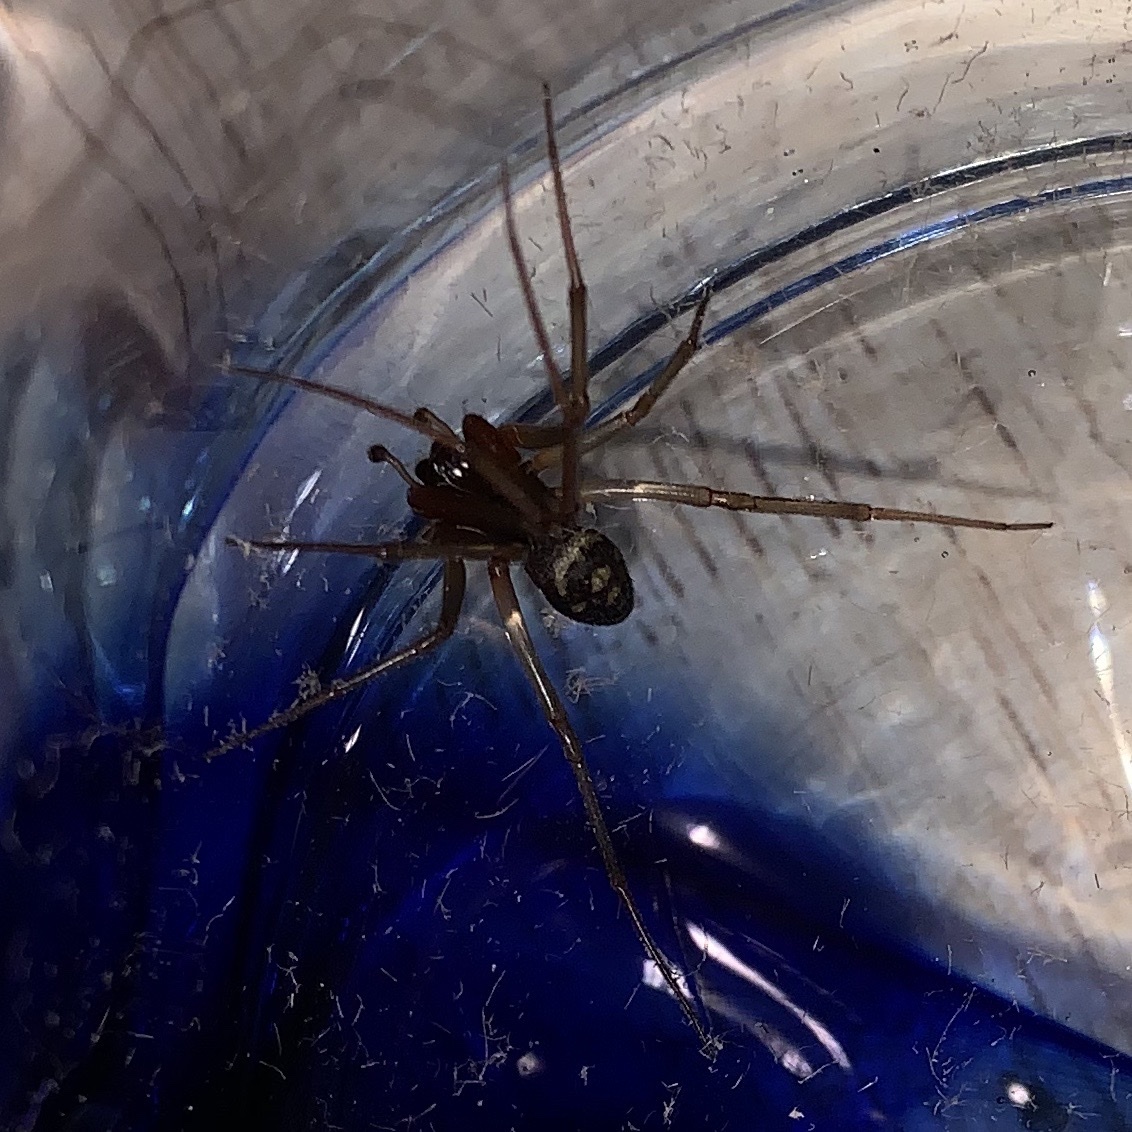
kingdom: Animalia
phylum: Arthropoda
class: Arachnida
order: Araneae
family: Theridiidae
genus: Steatoda
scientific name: Steatoda grossa
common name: False black widow
